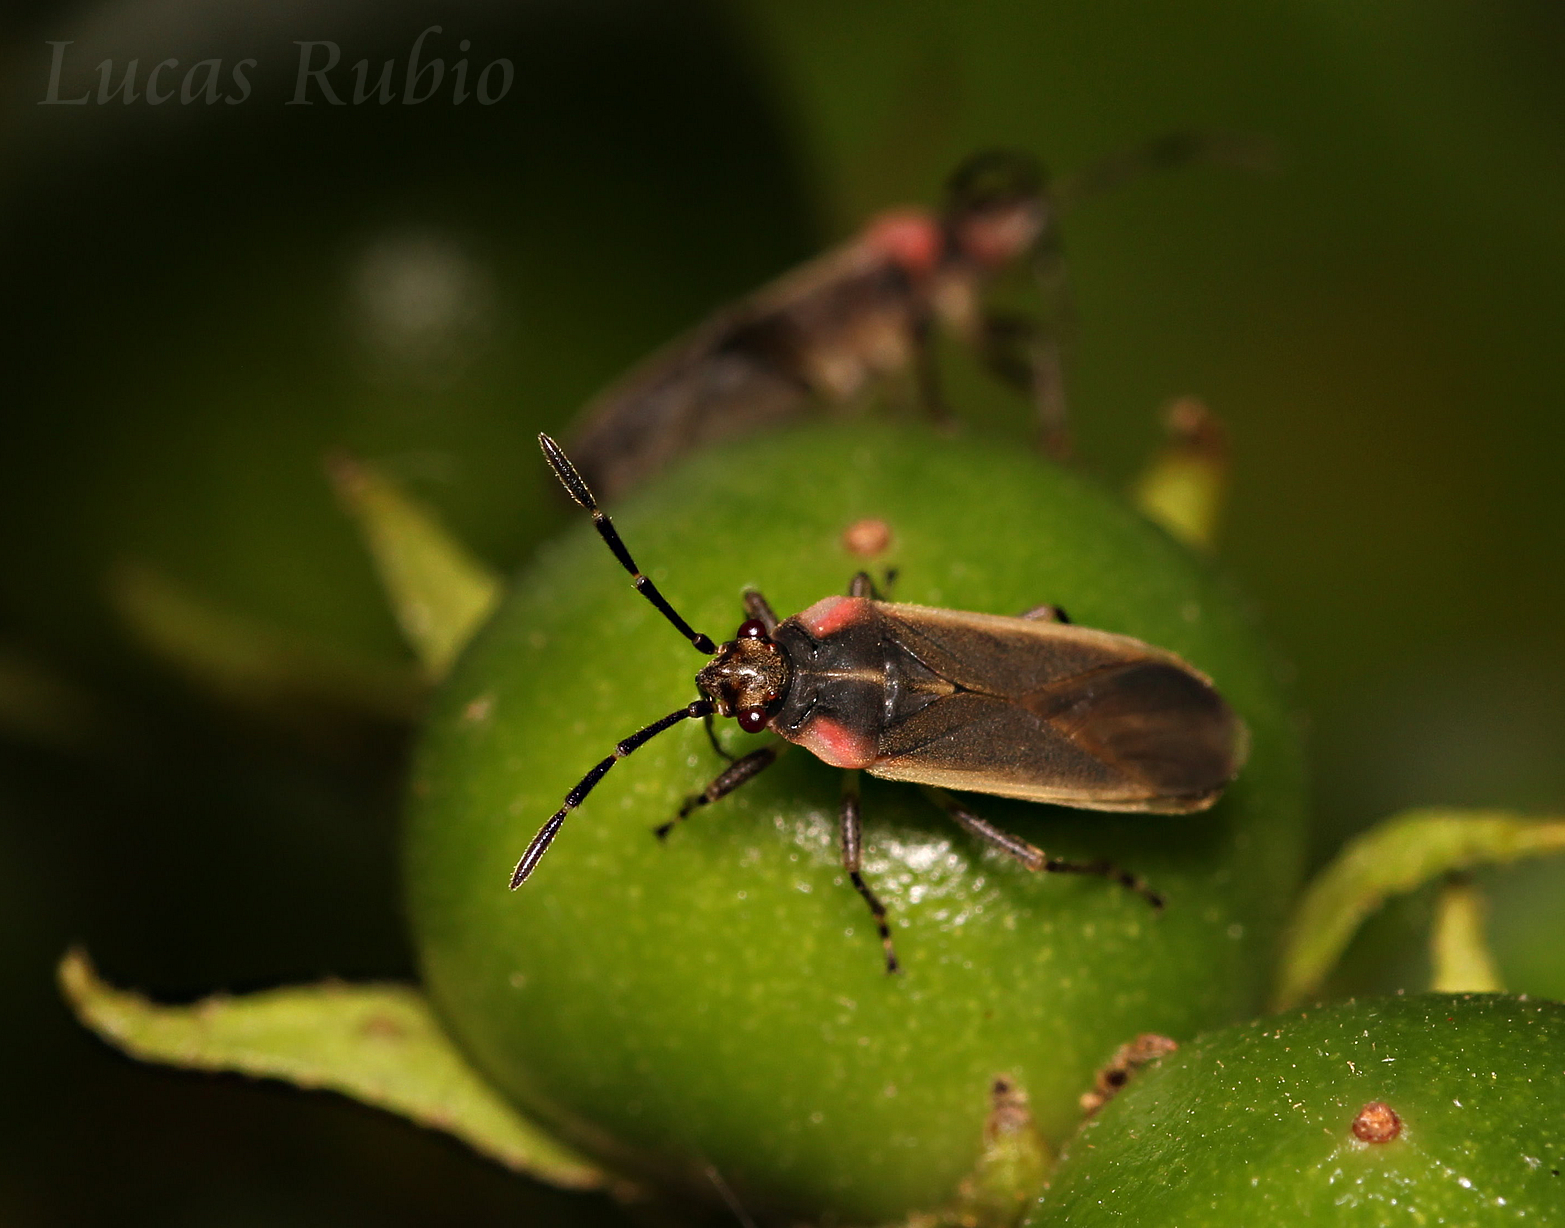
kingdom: Animalia
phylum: Arthropoda
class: Insecta
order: Hemiptera
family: Lygaeidae
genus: Acroleucus
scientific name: Acroleucus coxalis
